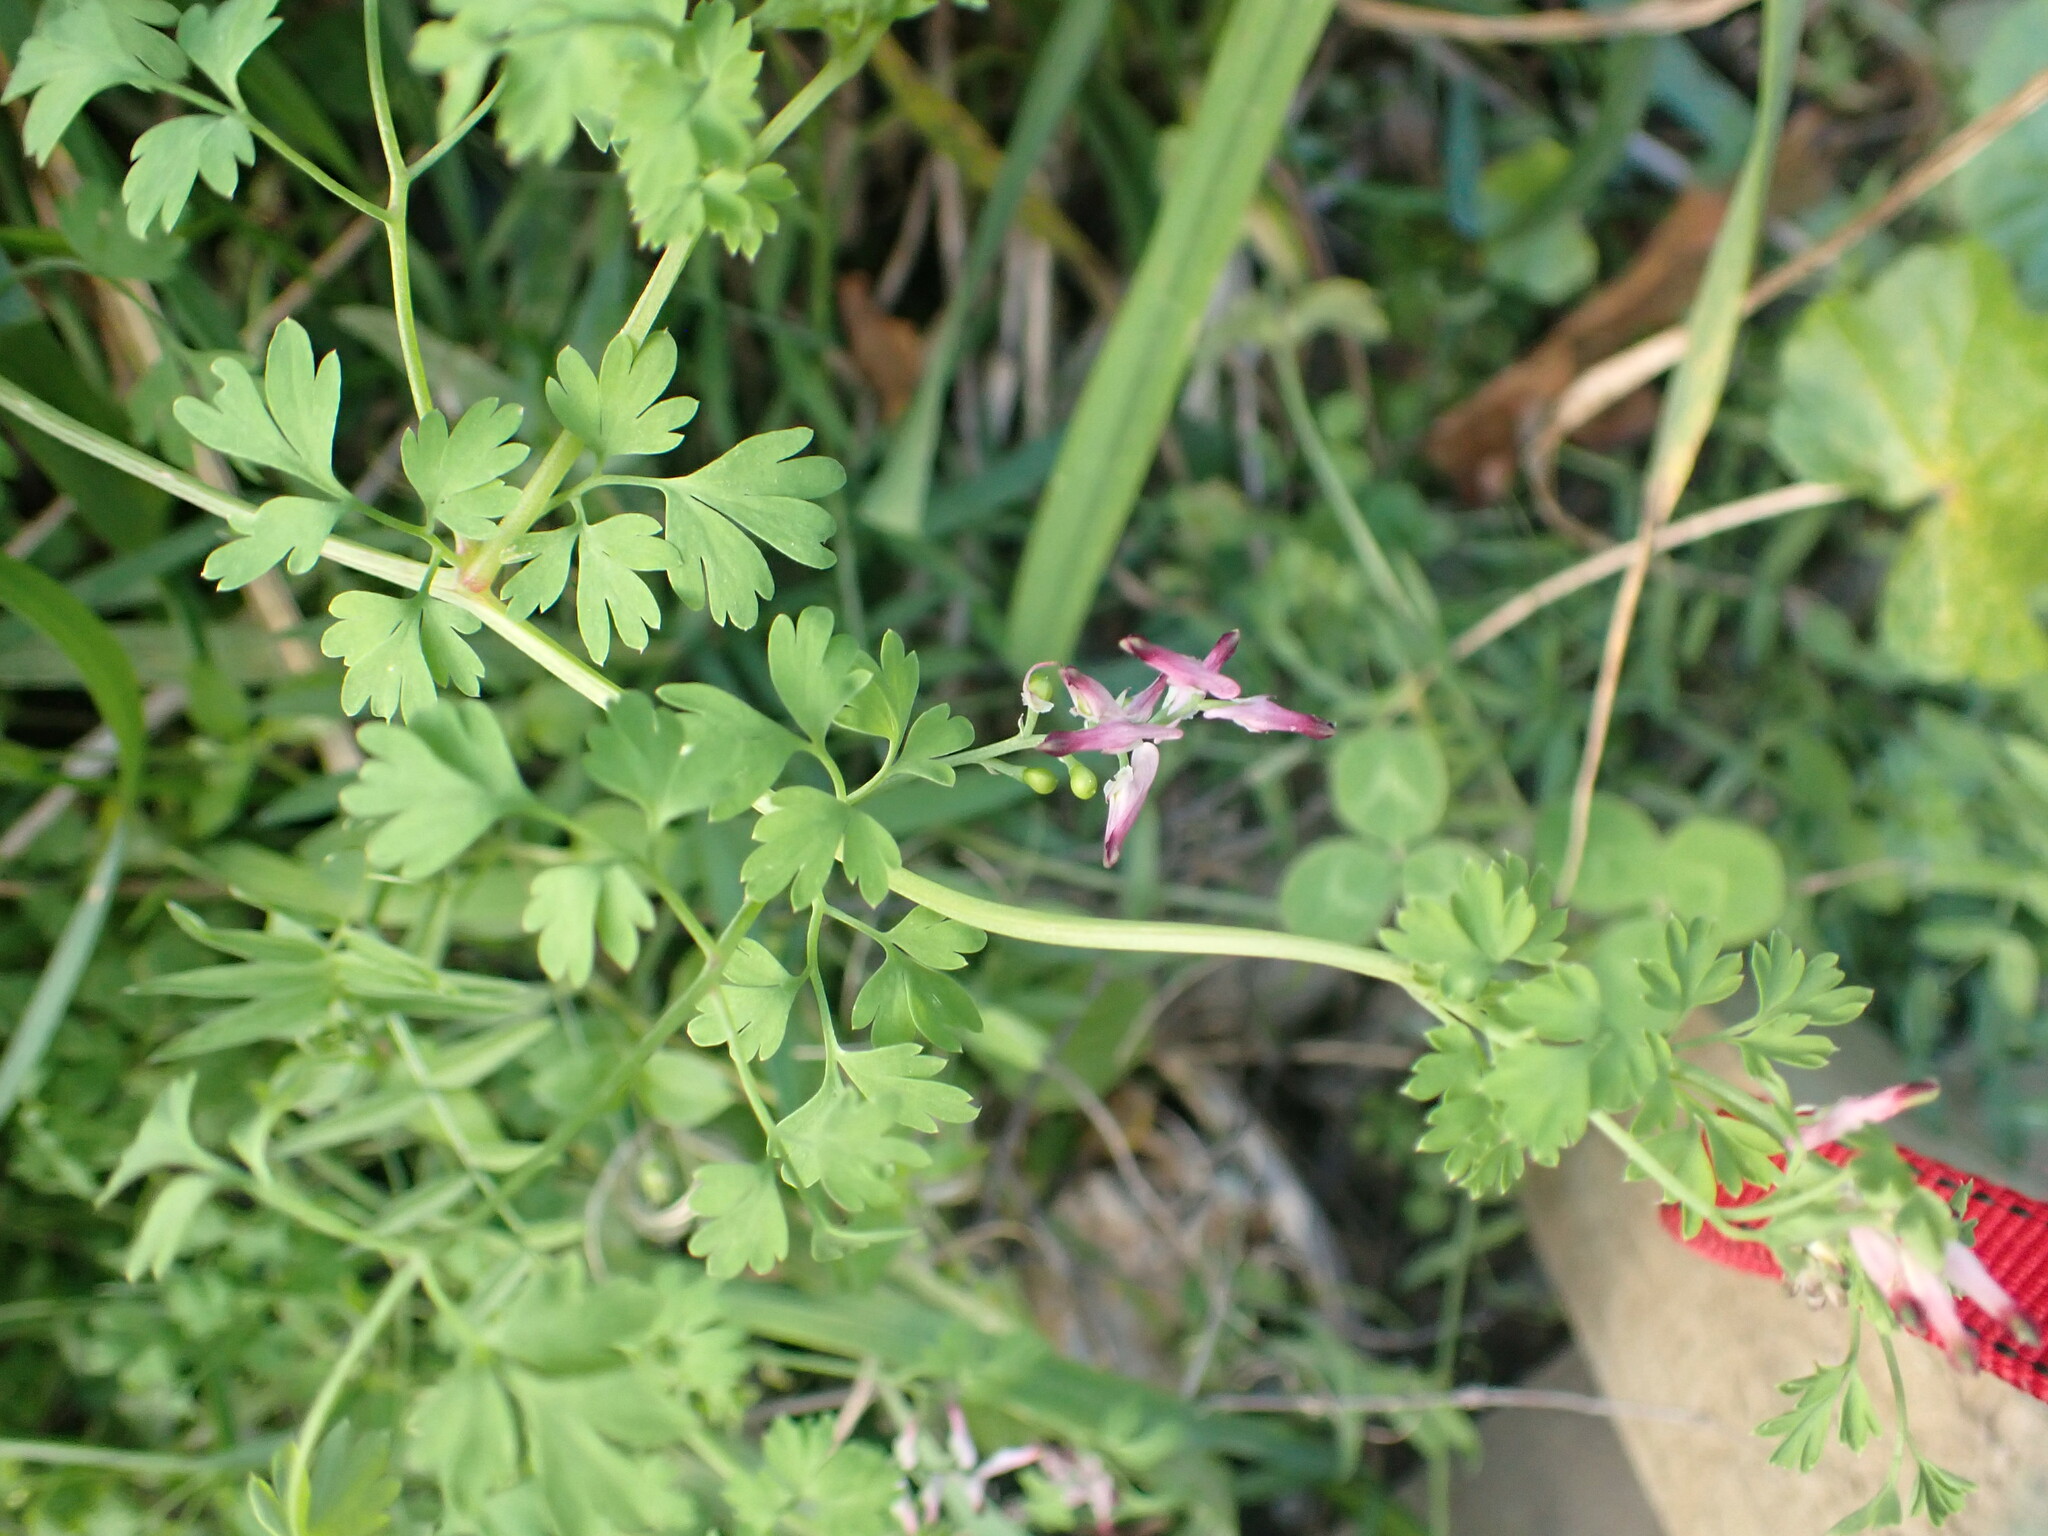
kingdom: Plantae
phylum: Tracheophyta
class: Magnoliopsida
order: Ranunculales
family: Papaveraceae
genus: Fumaria
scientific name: Fumaria muralis
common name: Common ramping-fumitory
